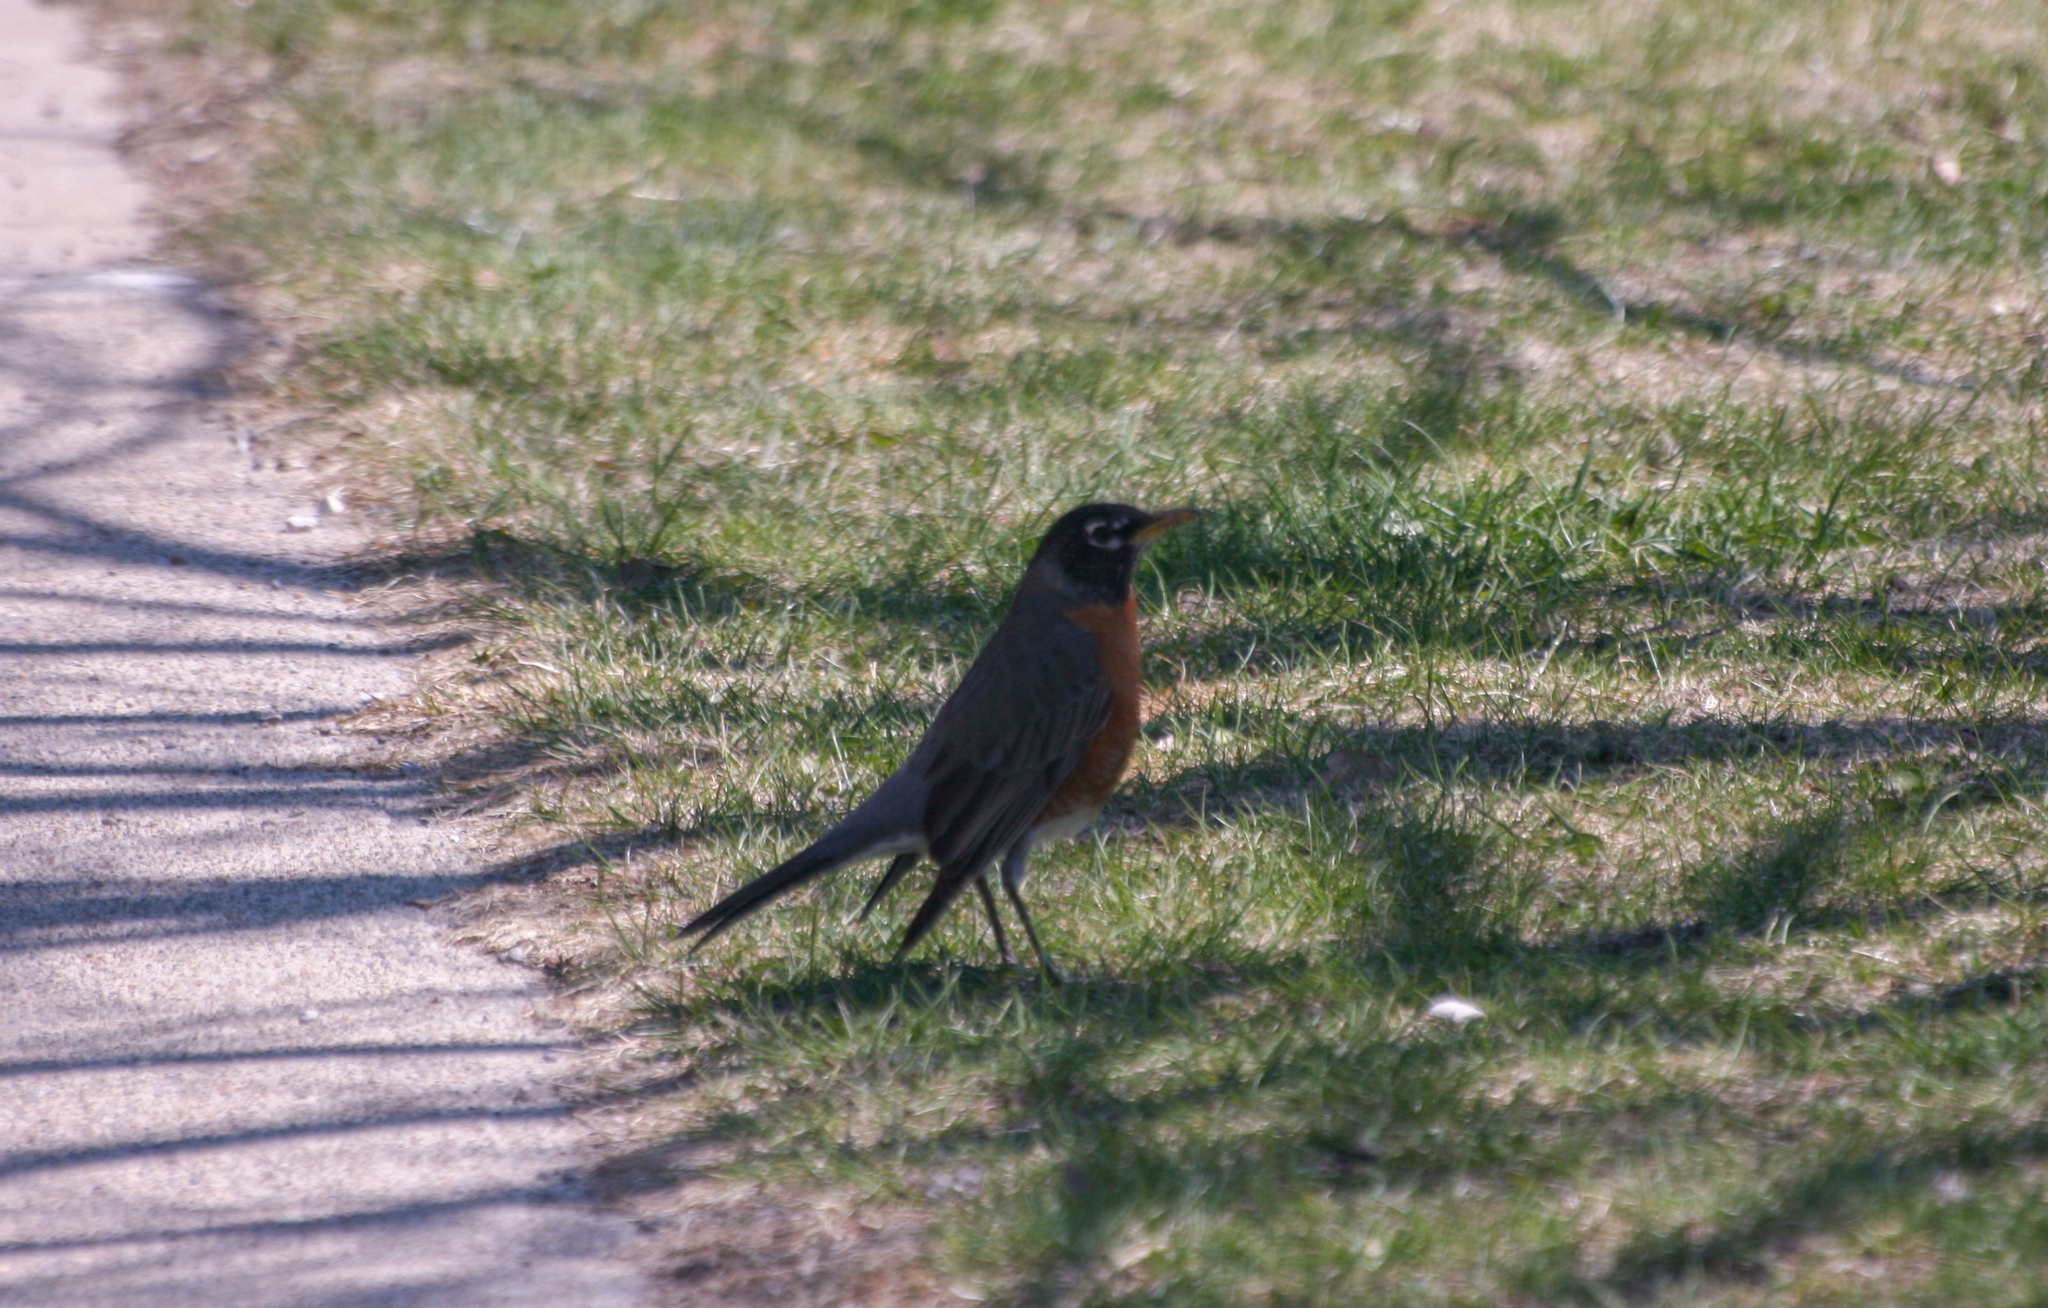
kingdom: Animalia
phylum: Chordata
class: Aves
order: Passeriformes
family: Turdidae
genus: Turdus
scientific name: Turdus migratorius
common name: American robin
